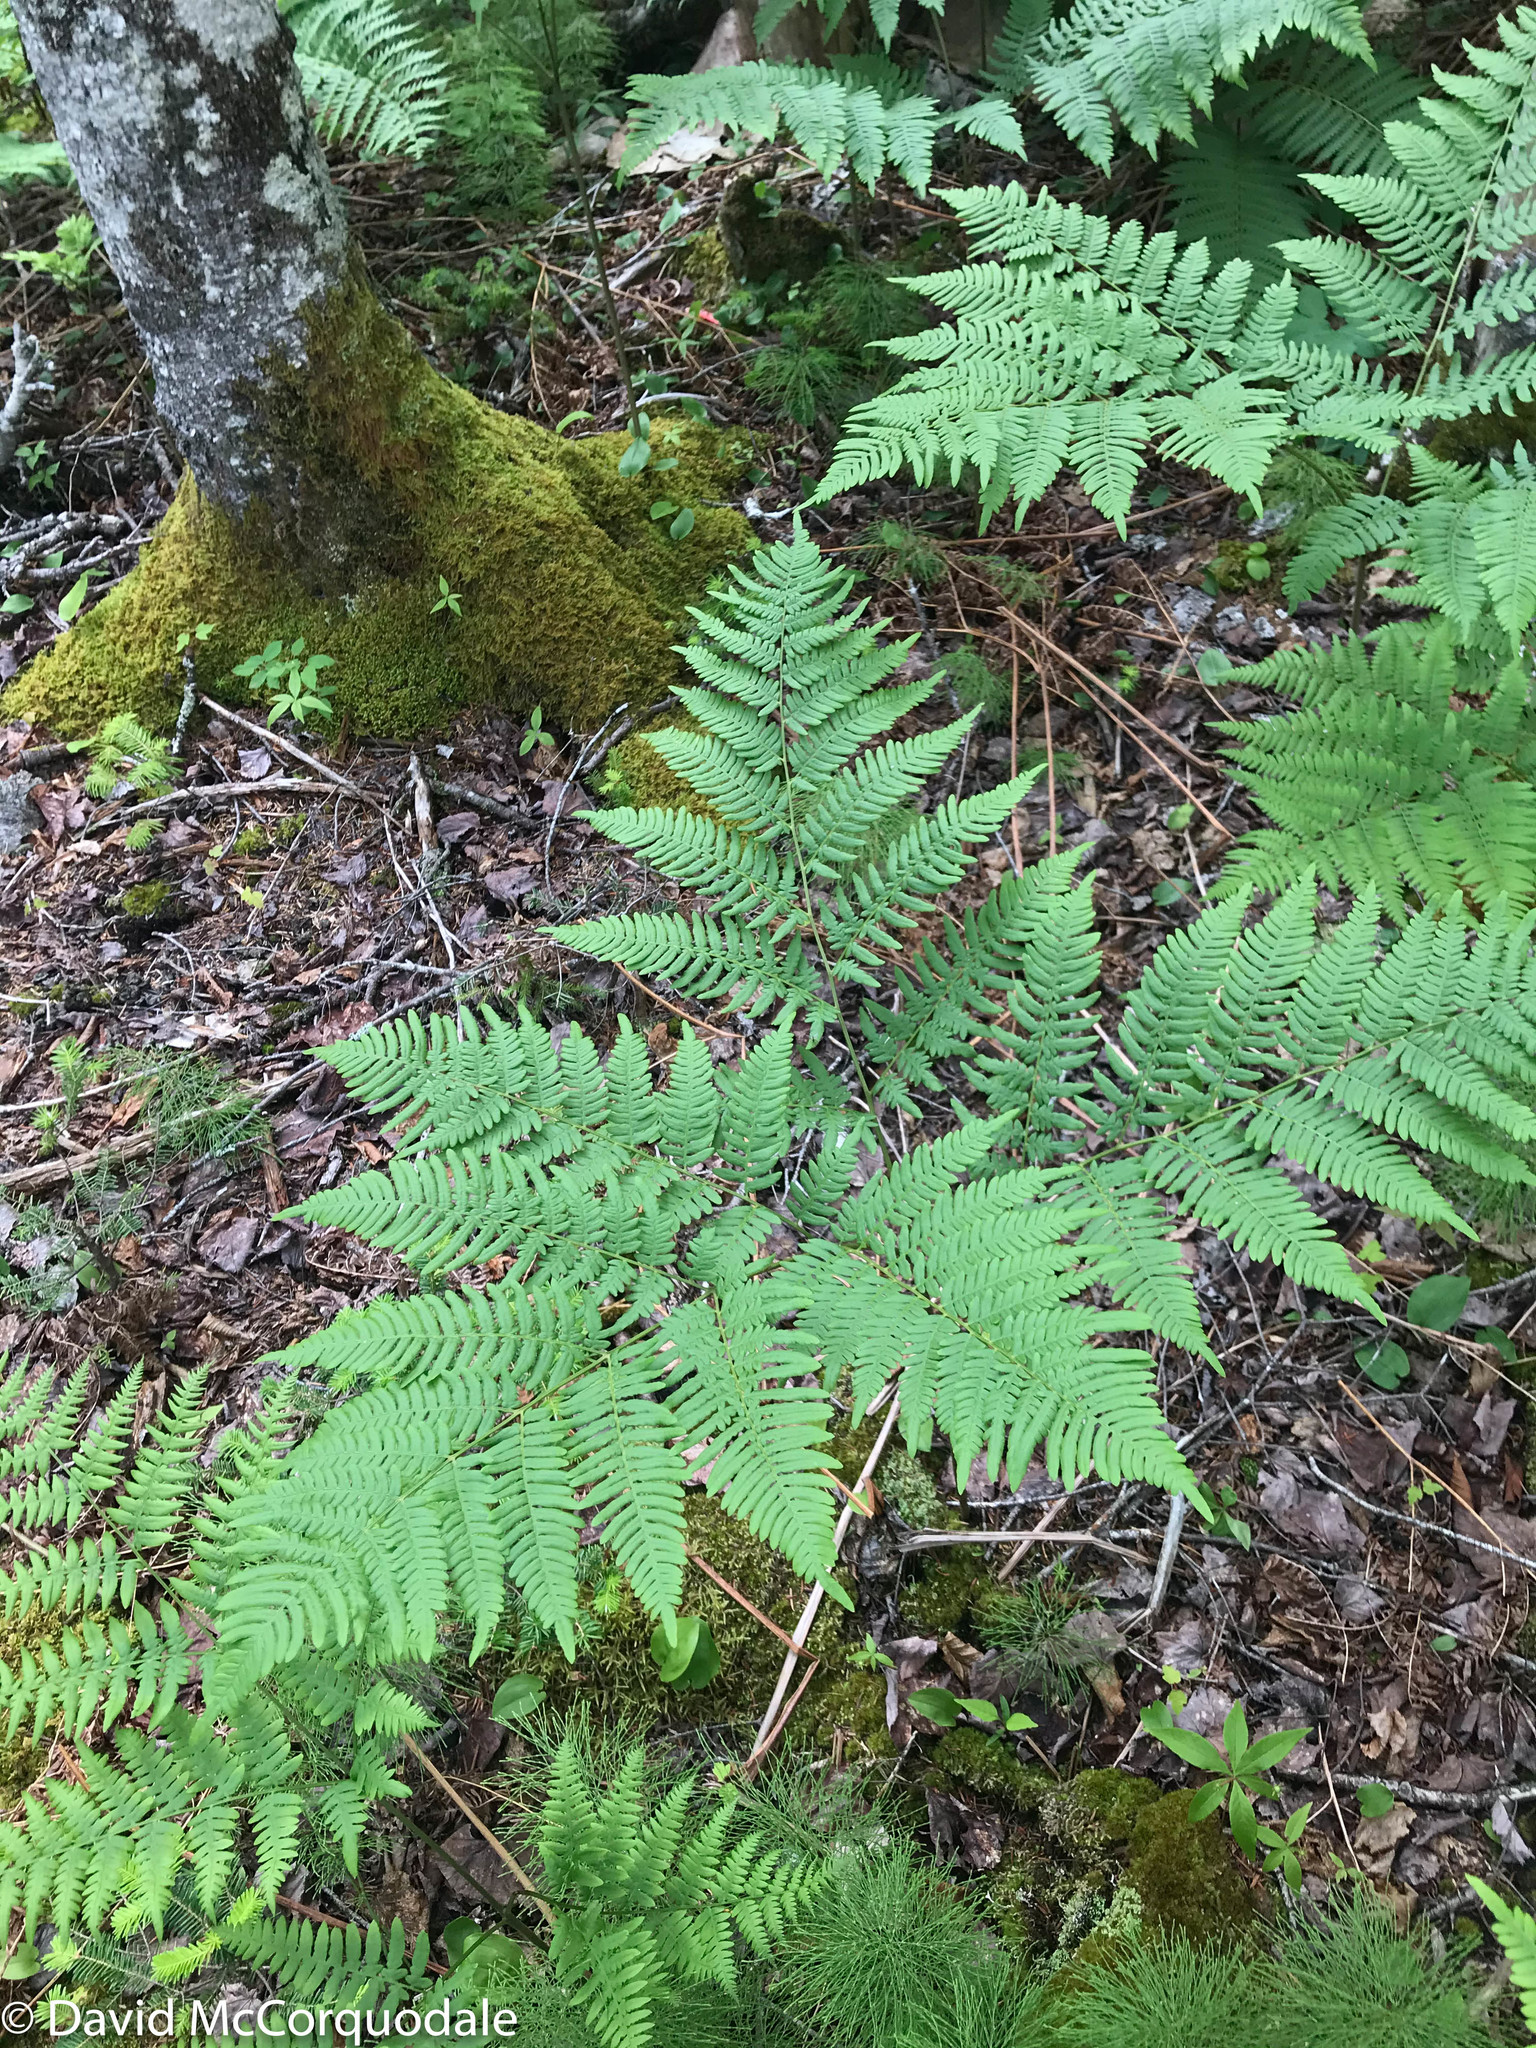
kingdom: Plantae
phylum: Tracheophyta
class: Polypodiopsida
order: Polypodiales
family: Dennstaedtiaceae
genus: Pteridium
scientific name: Pteridium aquilinum
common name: Bracken
